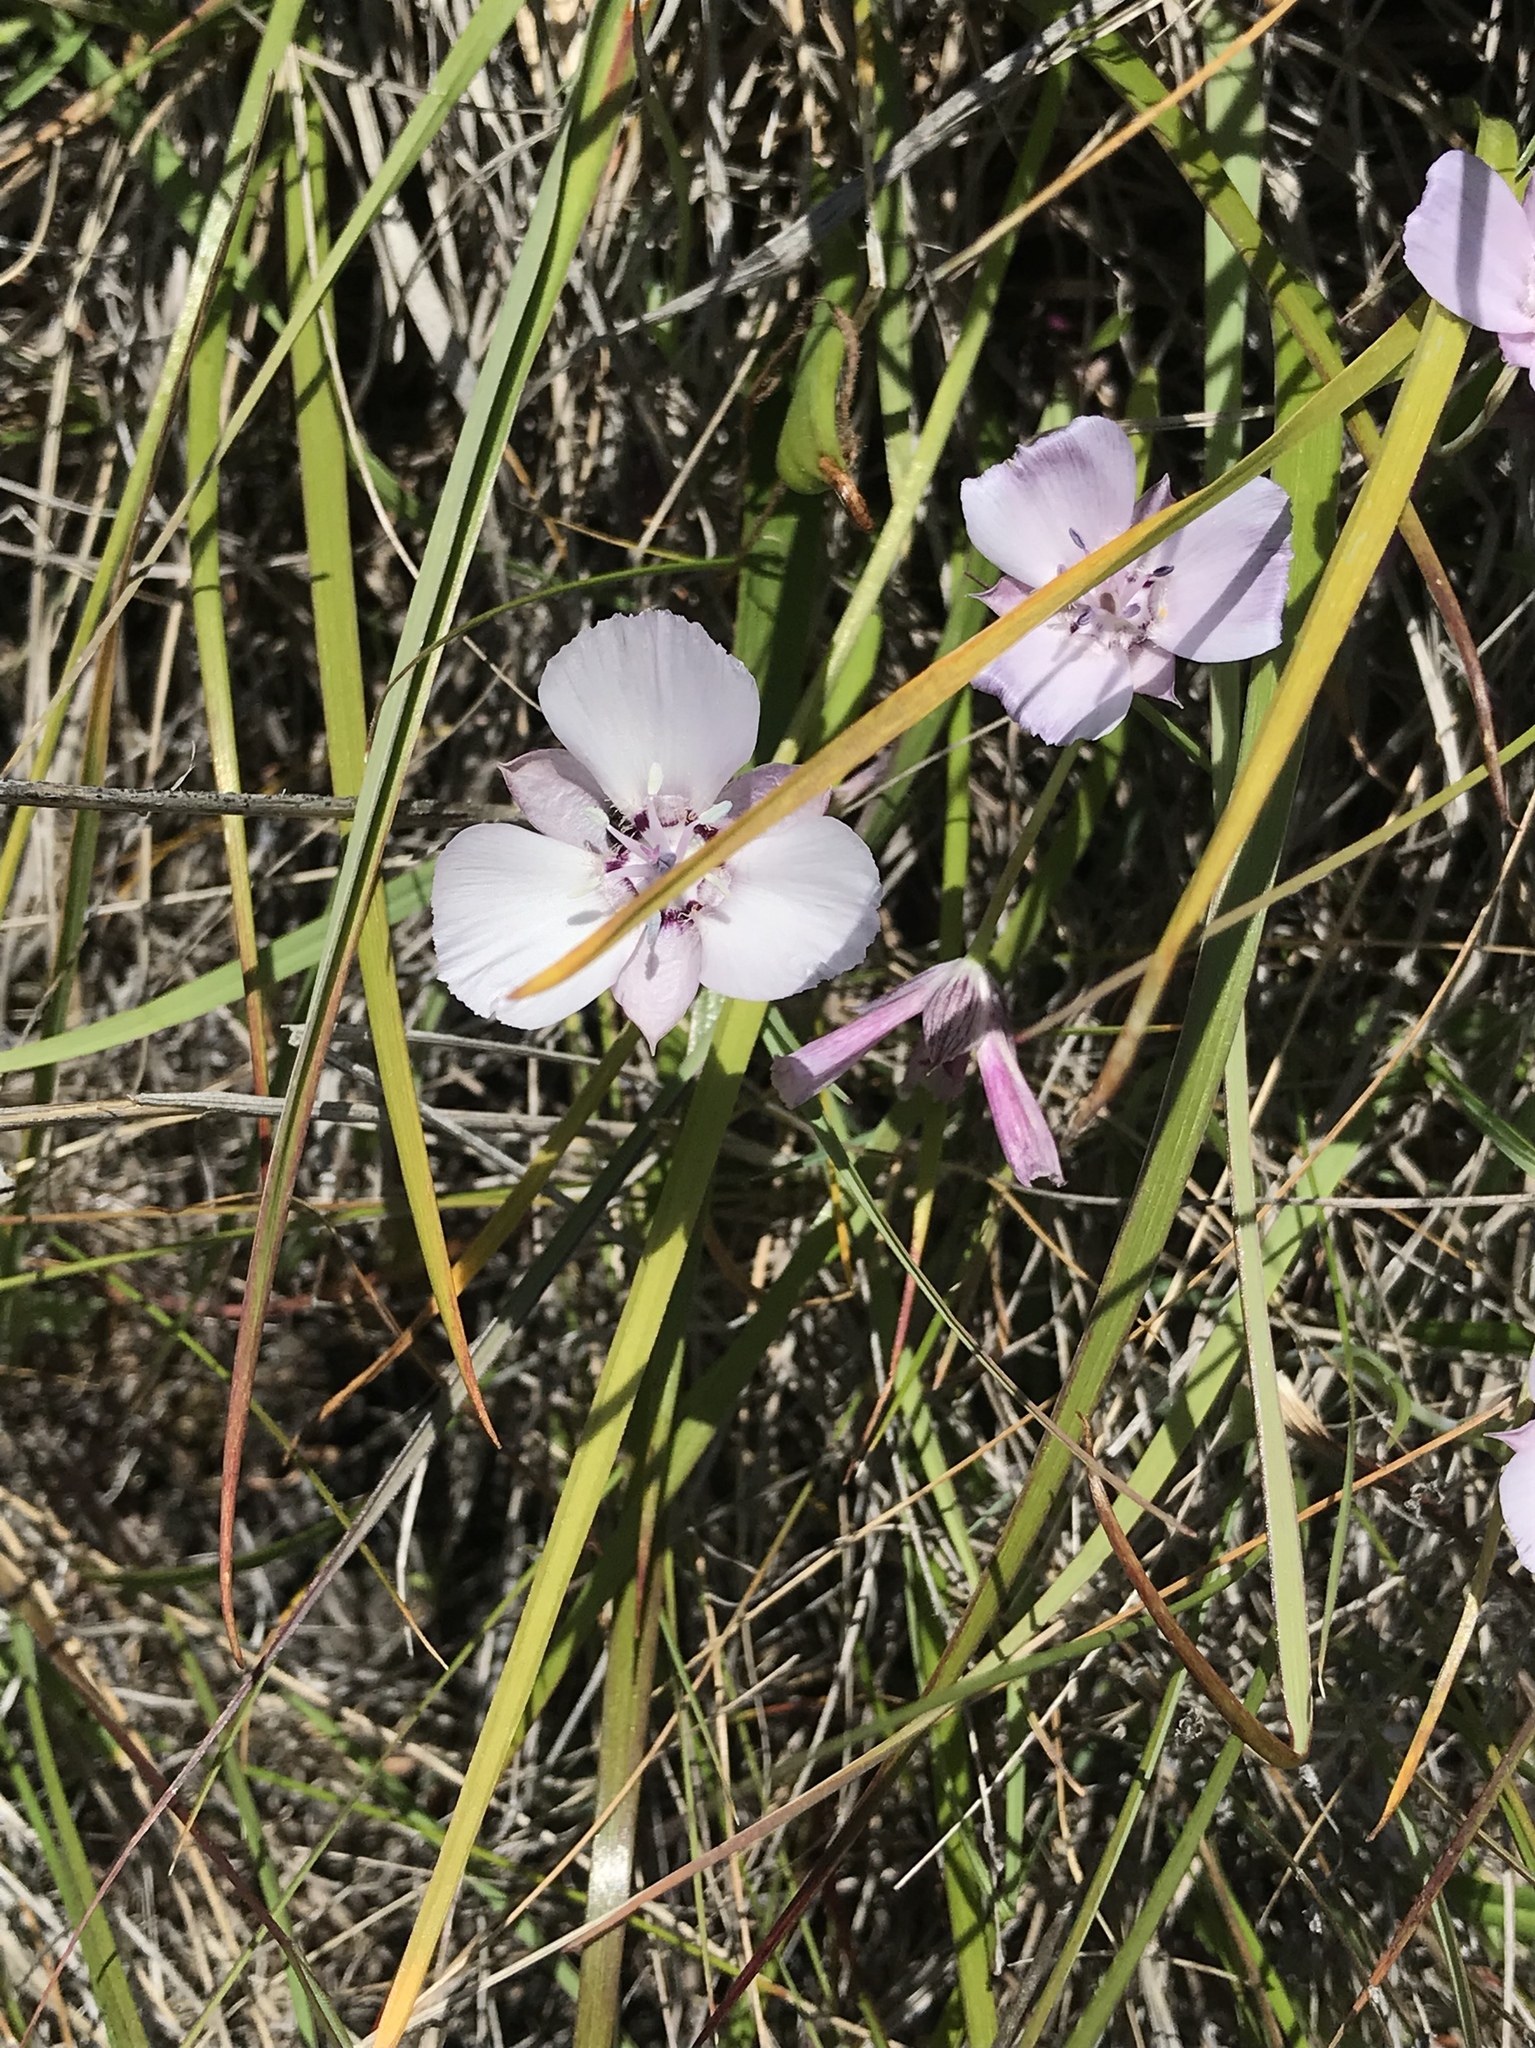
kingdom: Plantae
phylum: Tracheophyta
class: Liliopsida
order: Liliales
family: Liliaceae
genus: Calochortus
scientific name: Calochortus umbellatus
